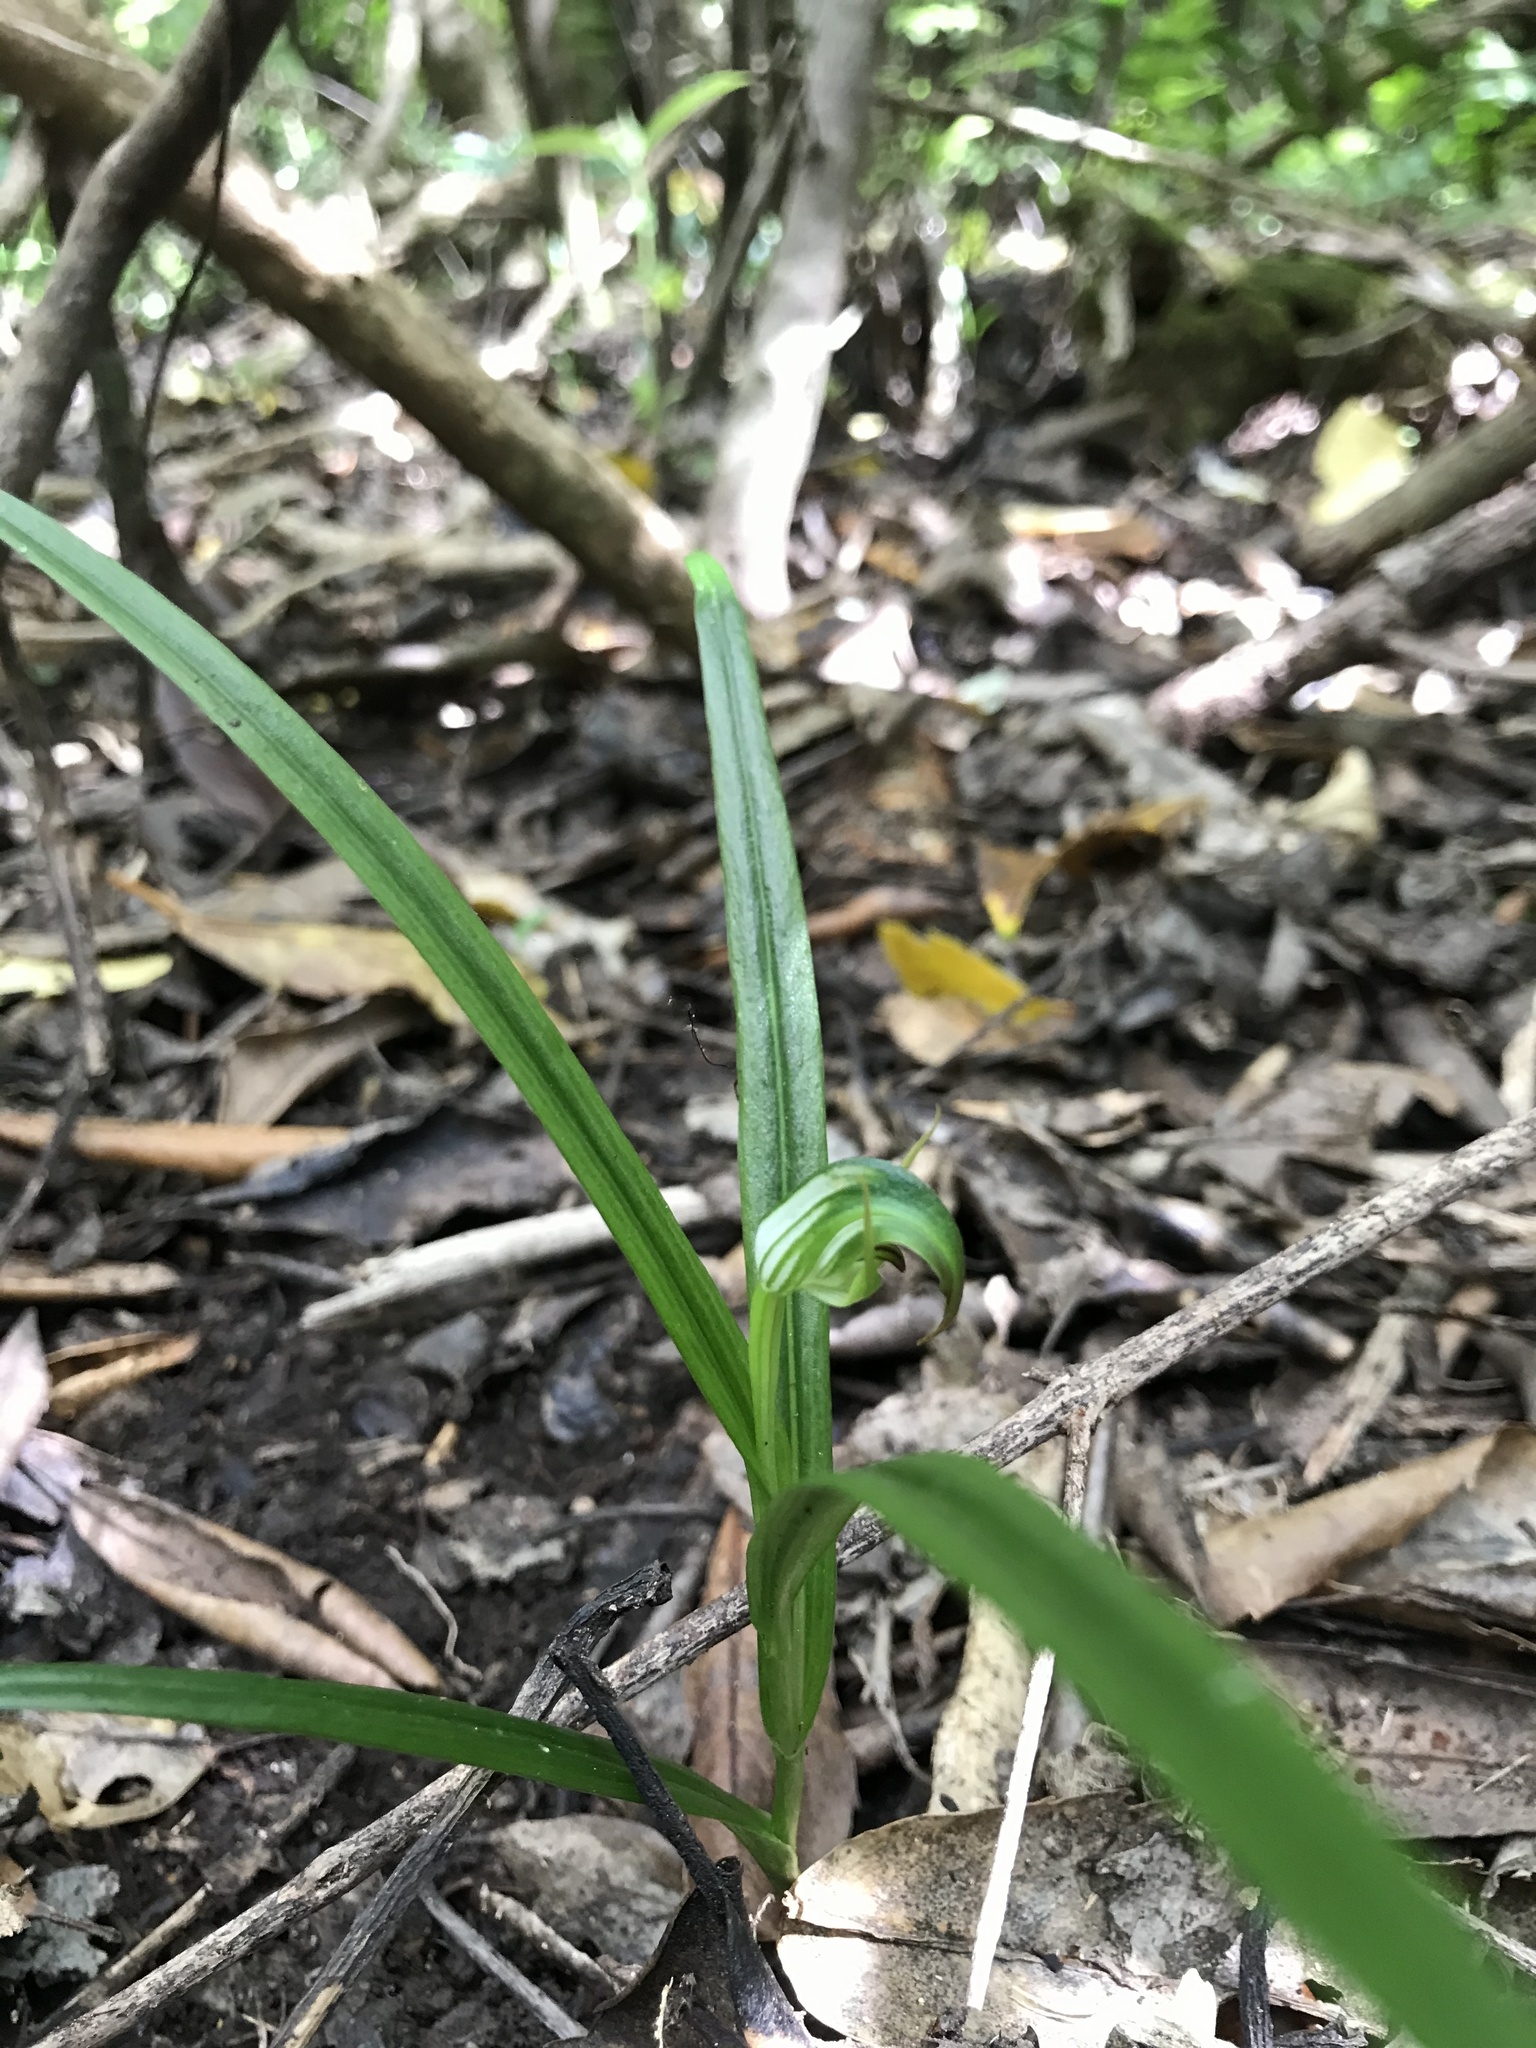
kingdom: Plantae
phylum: Tracheophyta
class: Liliopsida
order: Asparagales
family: Orchidaceae
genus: Pterostylis
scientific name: Pterostylis graminea
